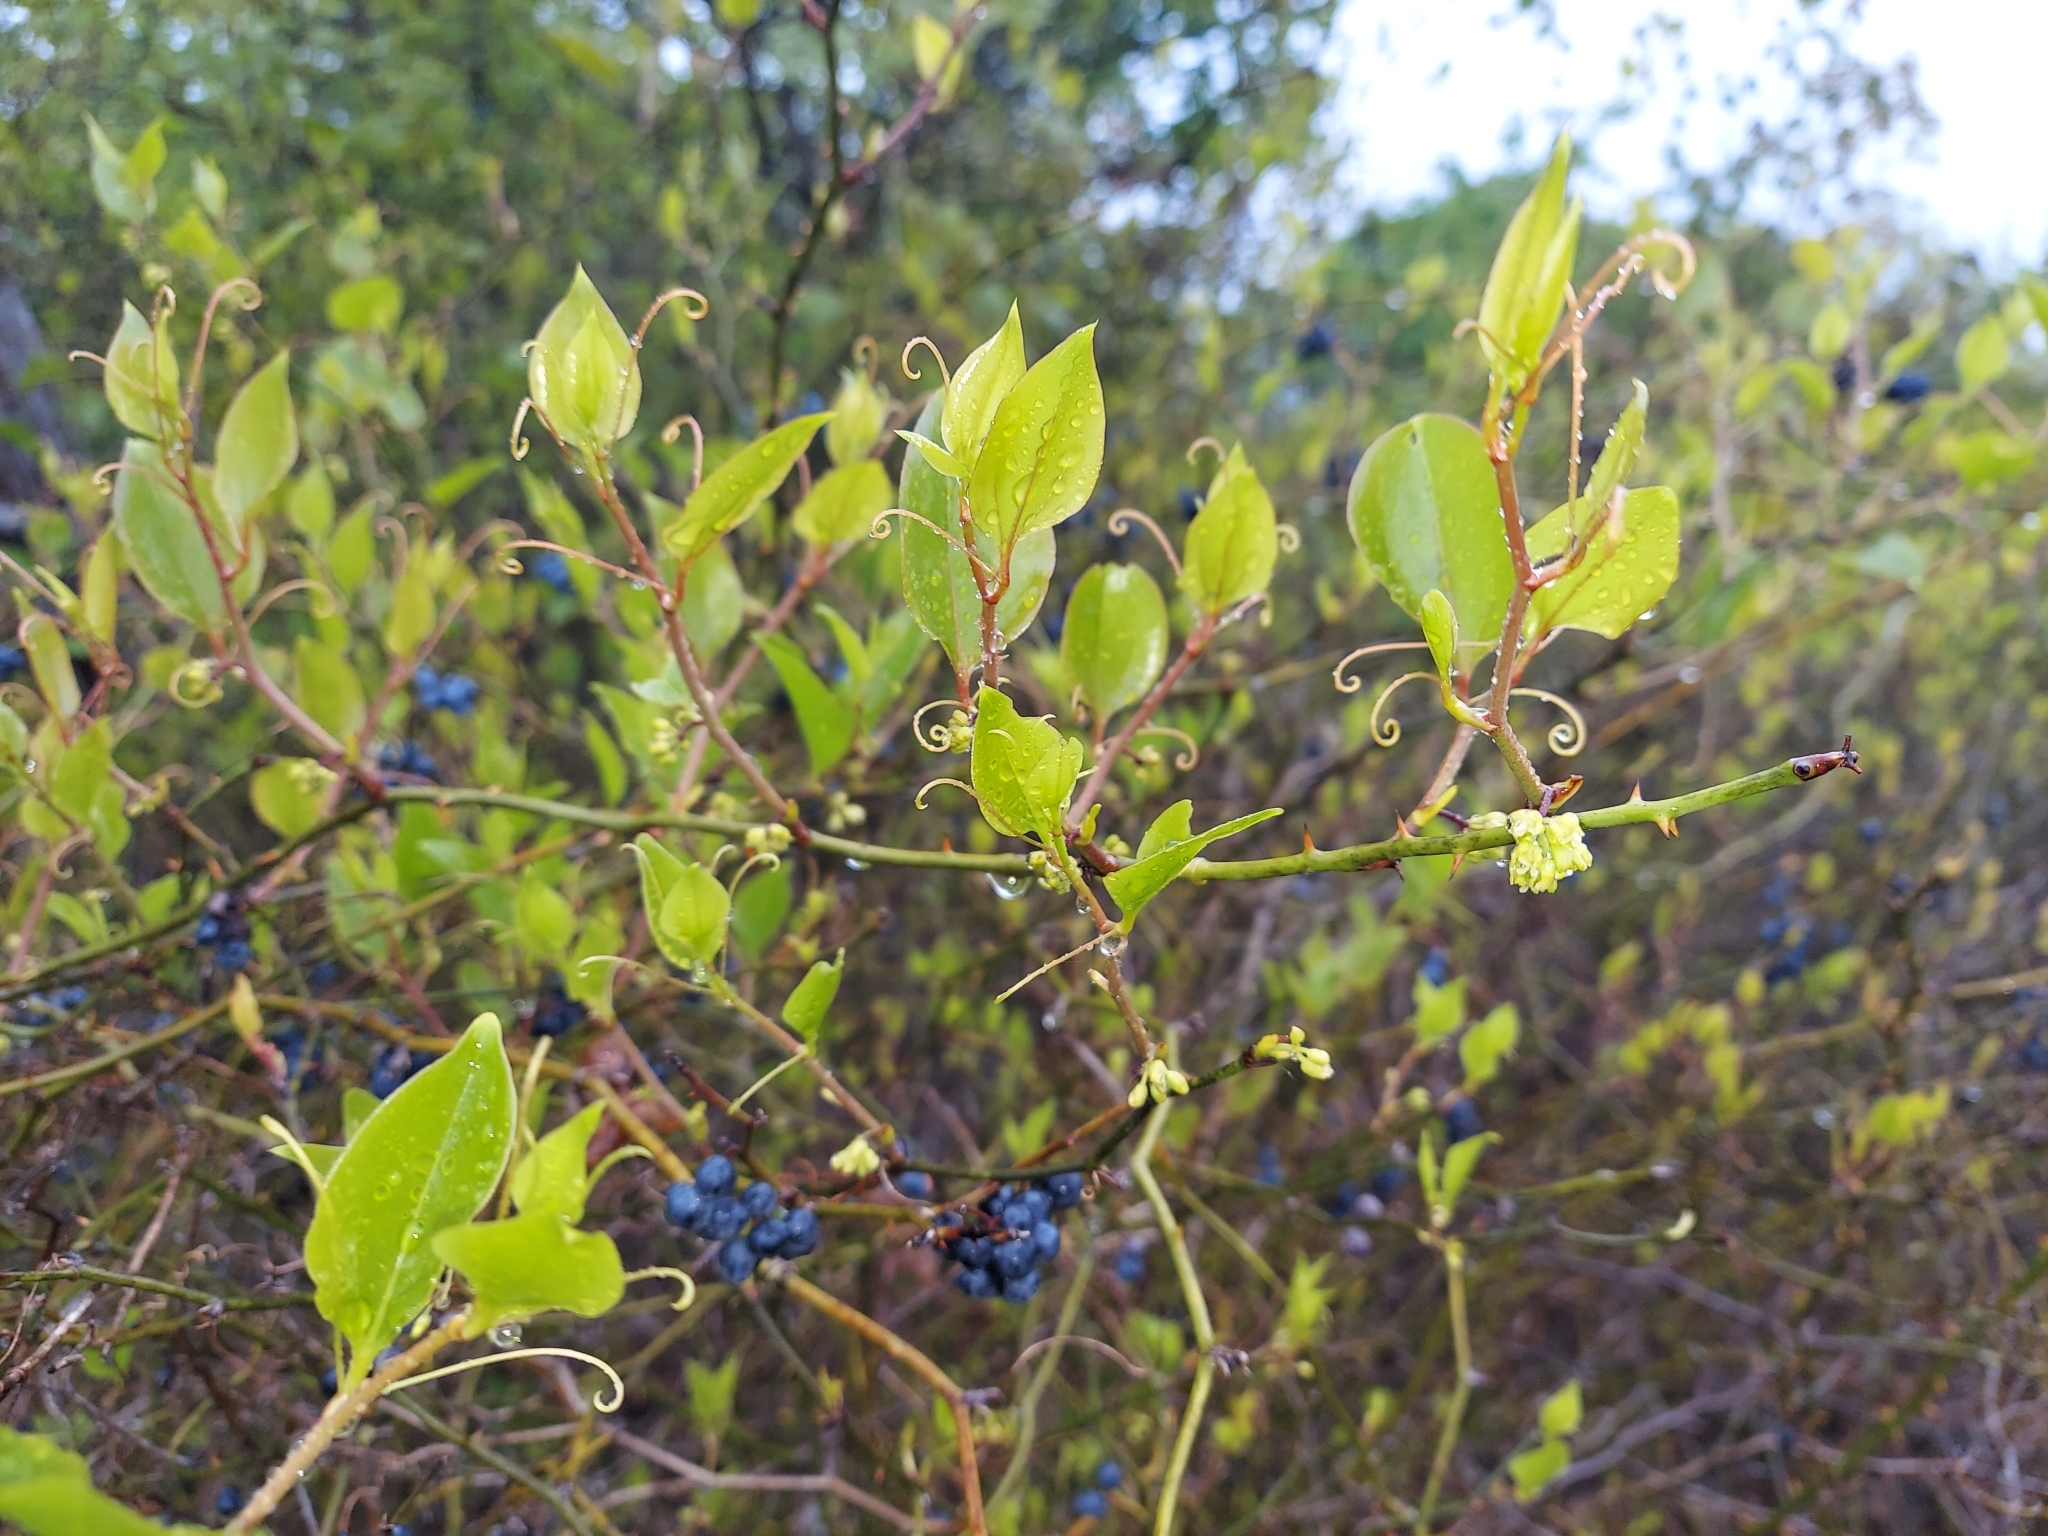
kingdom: Plantae
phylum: Tracheophyta
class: Liliopsida
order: Liliales
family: Smilacaceae
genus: Smilax
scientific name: Smilax rotundifolia
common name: Bullbriar
